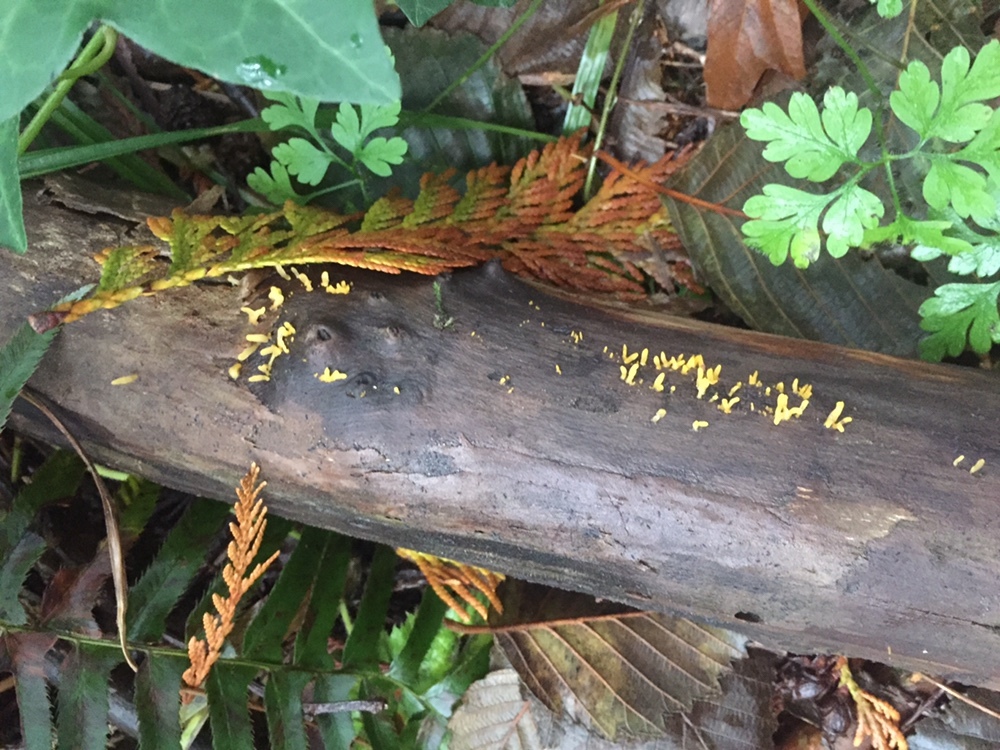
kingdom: Fungi
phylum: Basidiomycota
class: Dacrymycetes
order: Dacrymycetales
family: Dacrymycetaceae
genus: Calocera
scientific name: Calocera cornea
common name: Small stagshorn
